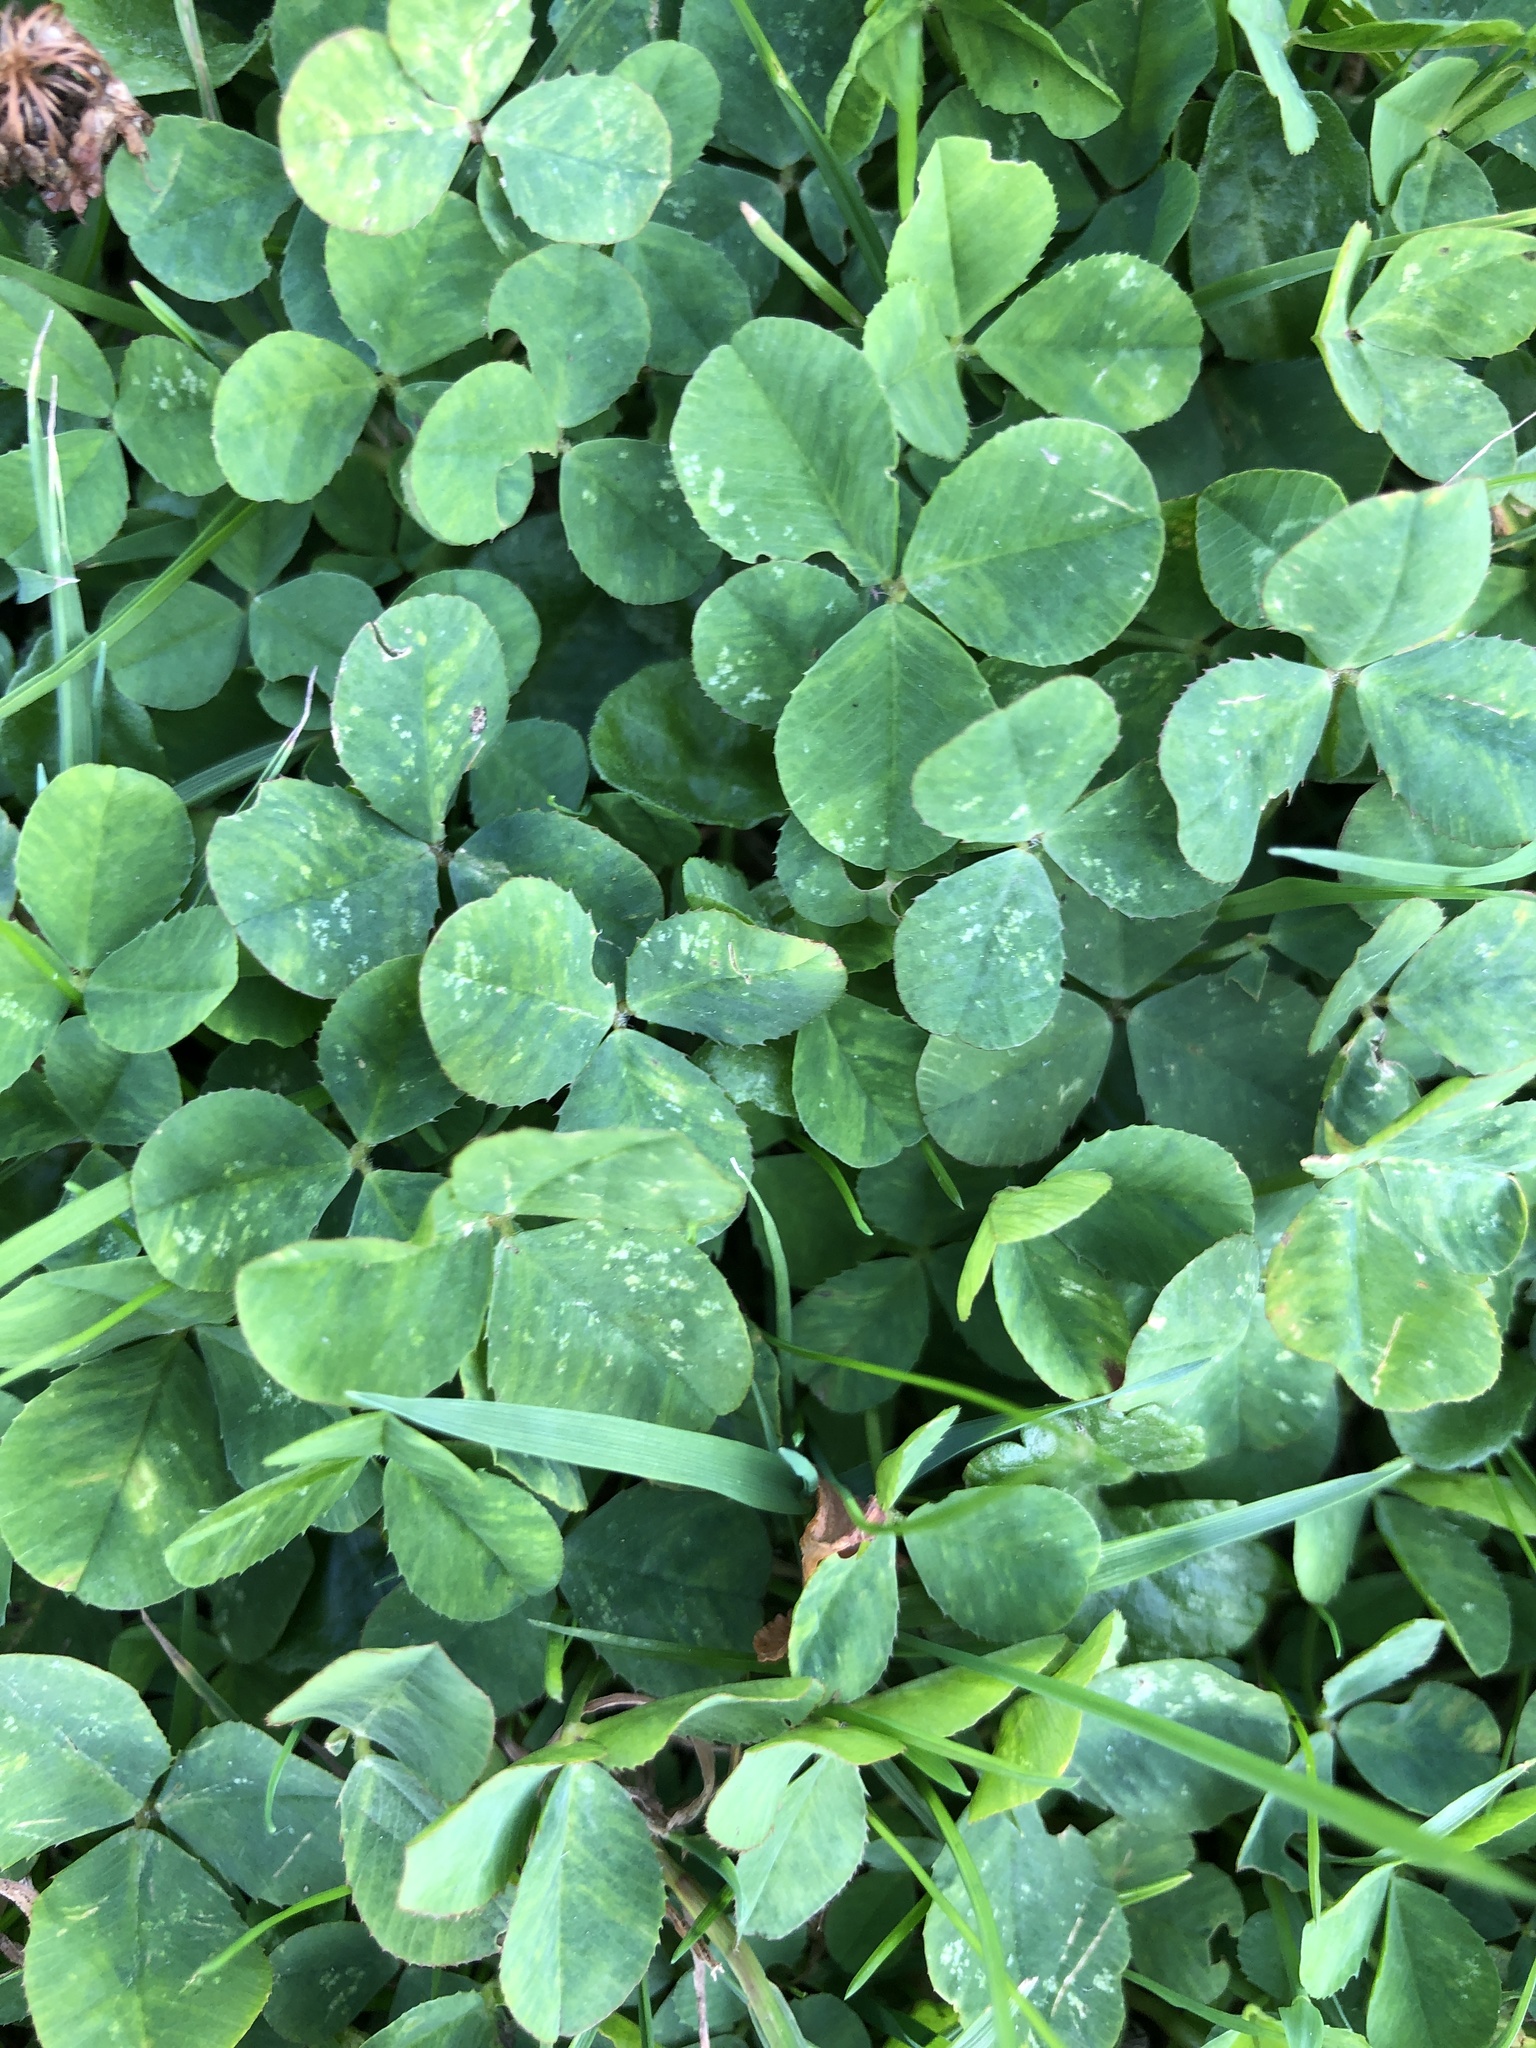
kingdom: Plantae
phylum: Tracheophyta
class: Magnoliopsida
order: Fabales
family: Fabaceae
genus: Trifolium
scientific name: Trifolium repens
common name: White clover
